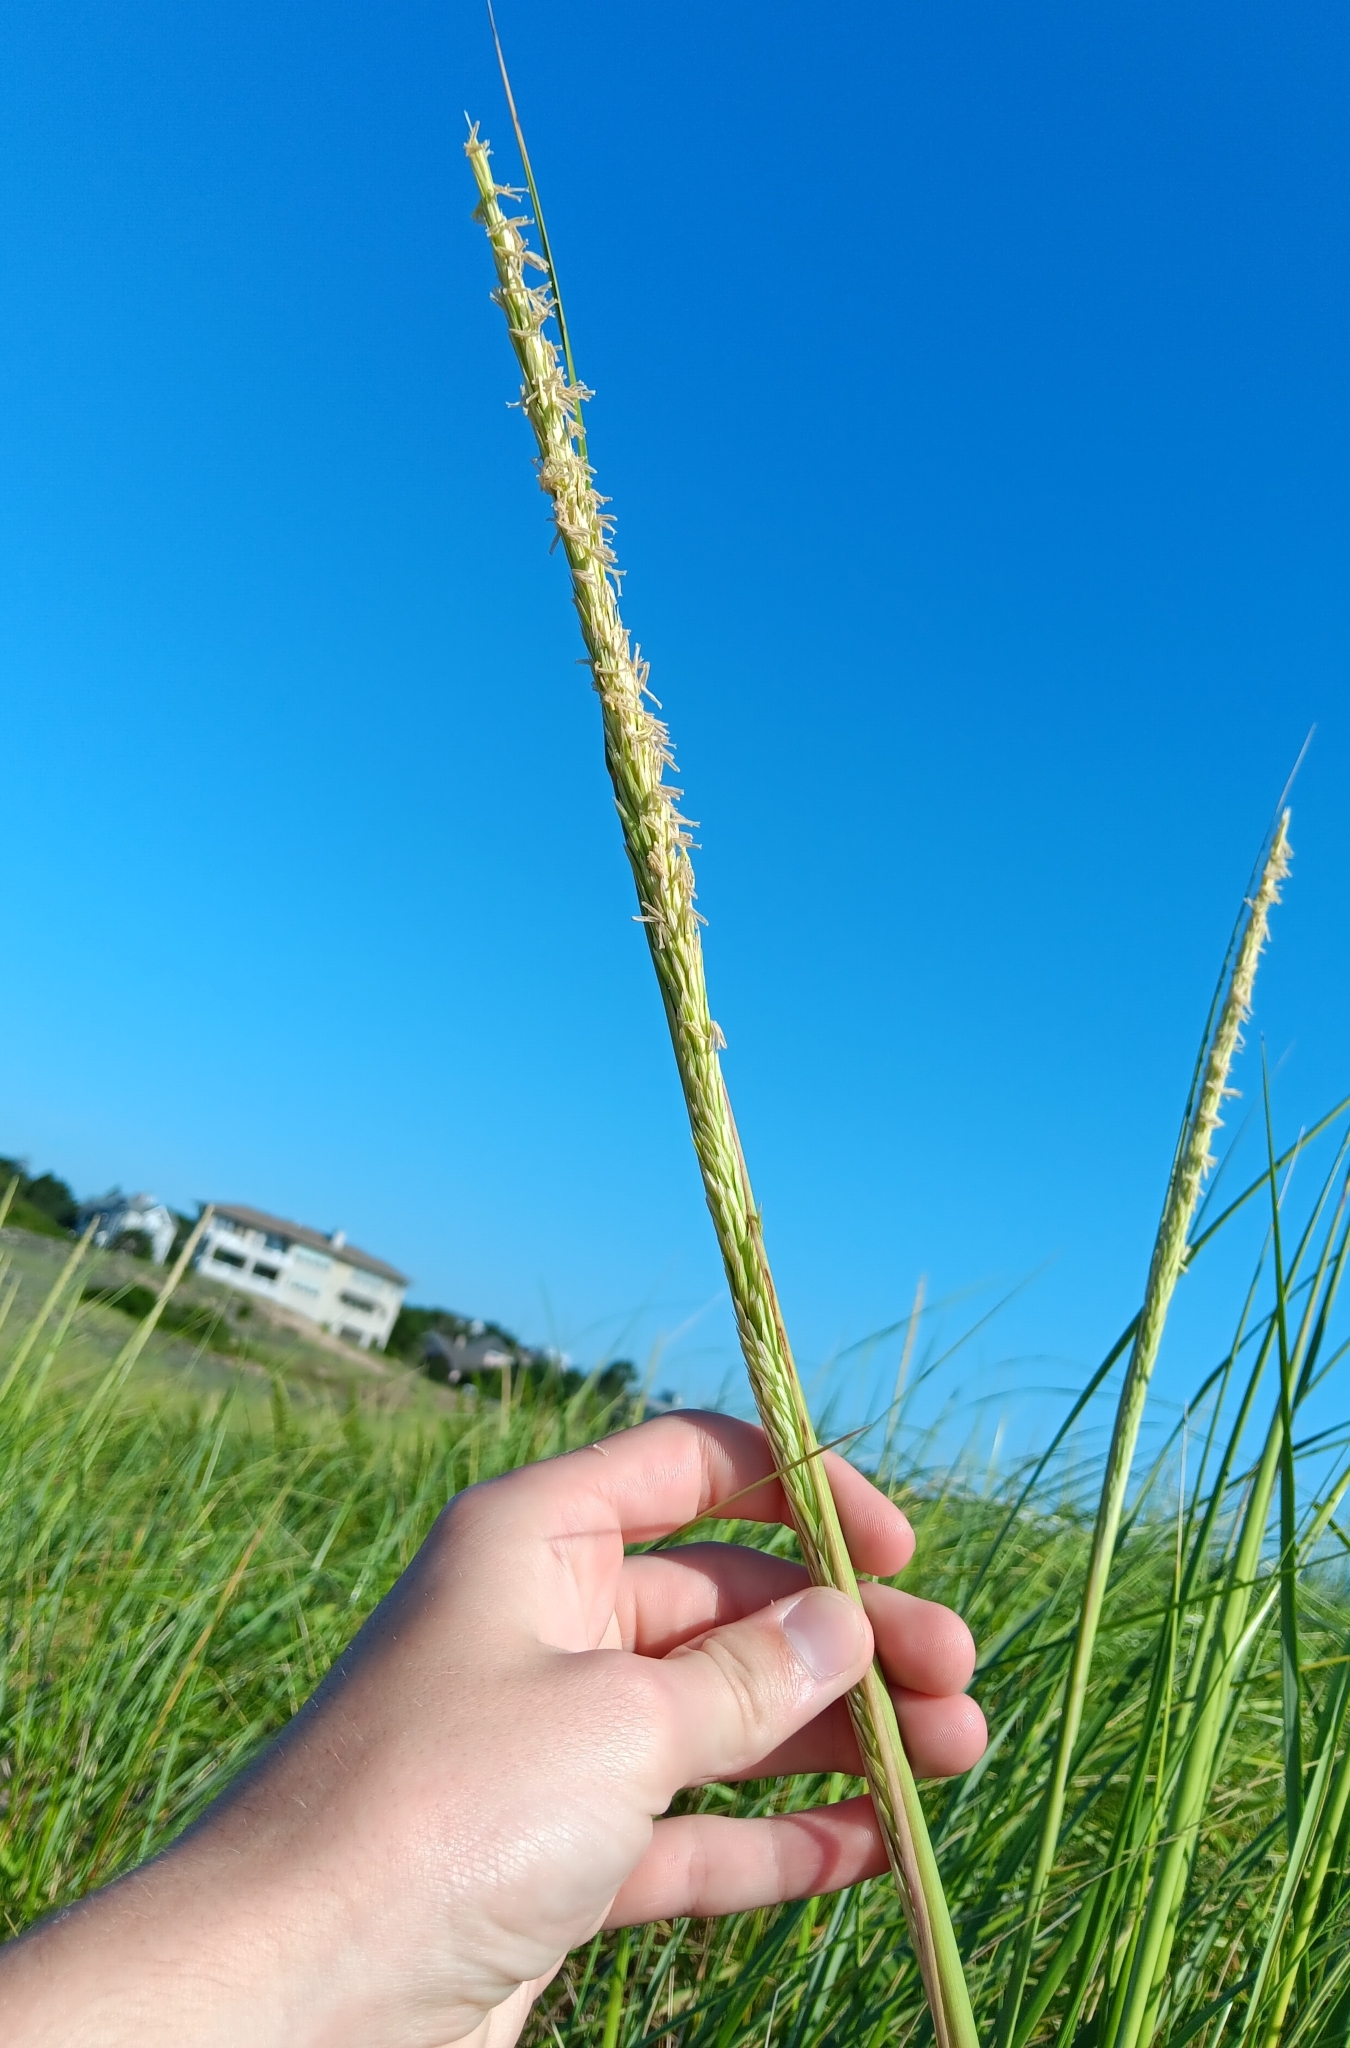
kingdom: Plantae
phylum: Tracheophyta
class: Liliopsida
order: Poales
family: Poaceae
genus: Calamagrostis
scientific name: Calamagrostis breviligulata
